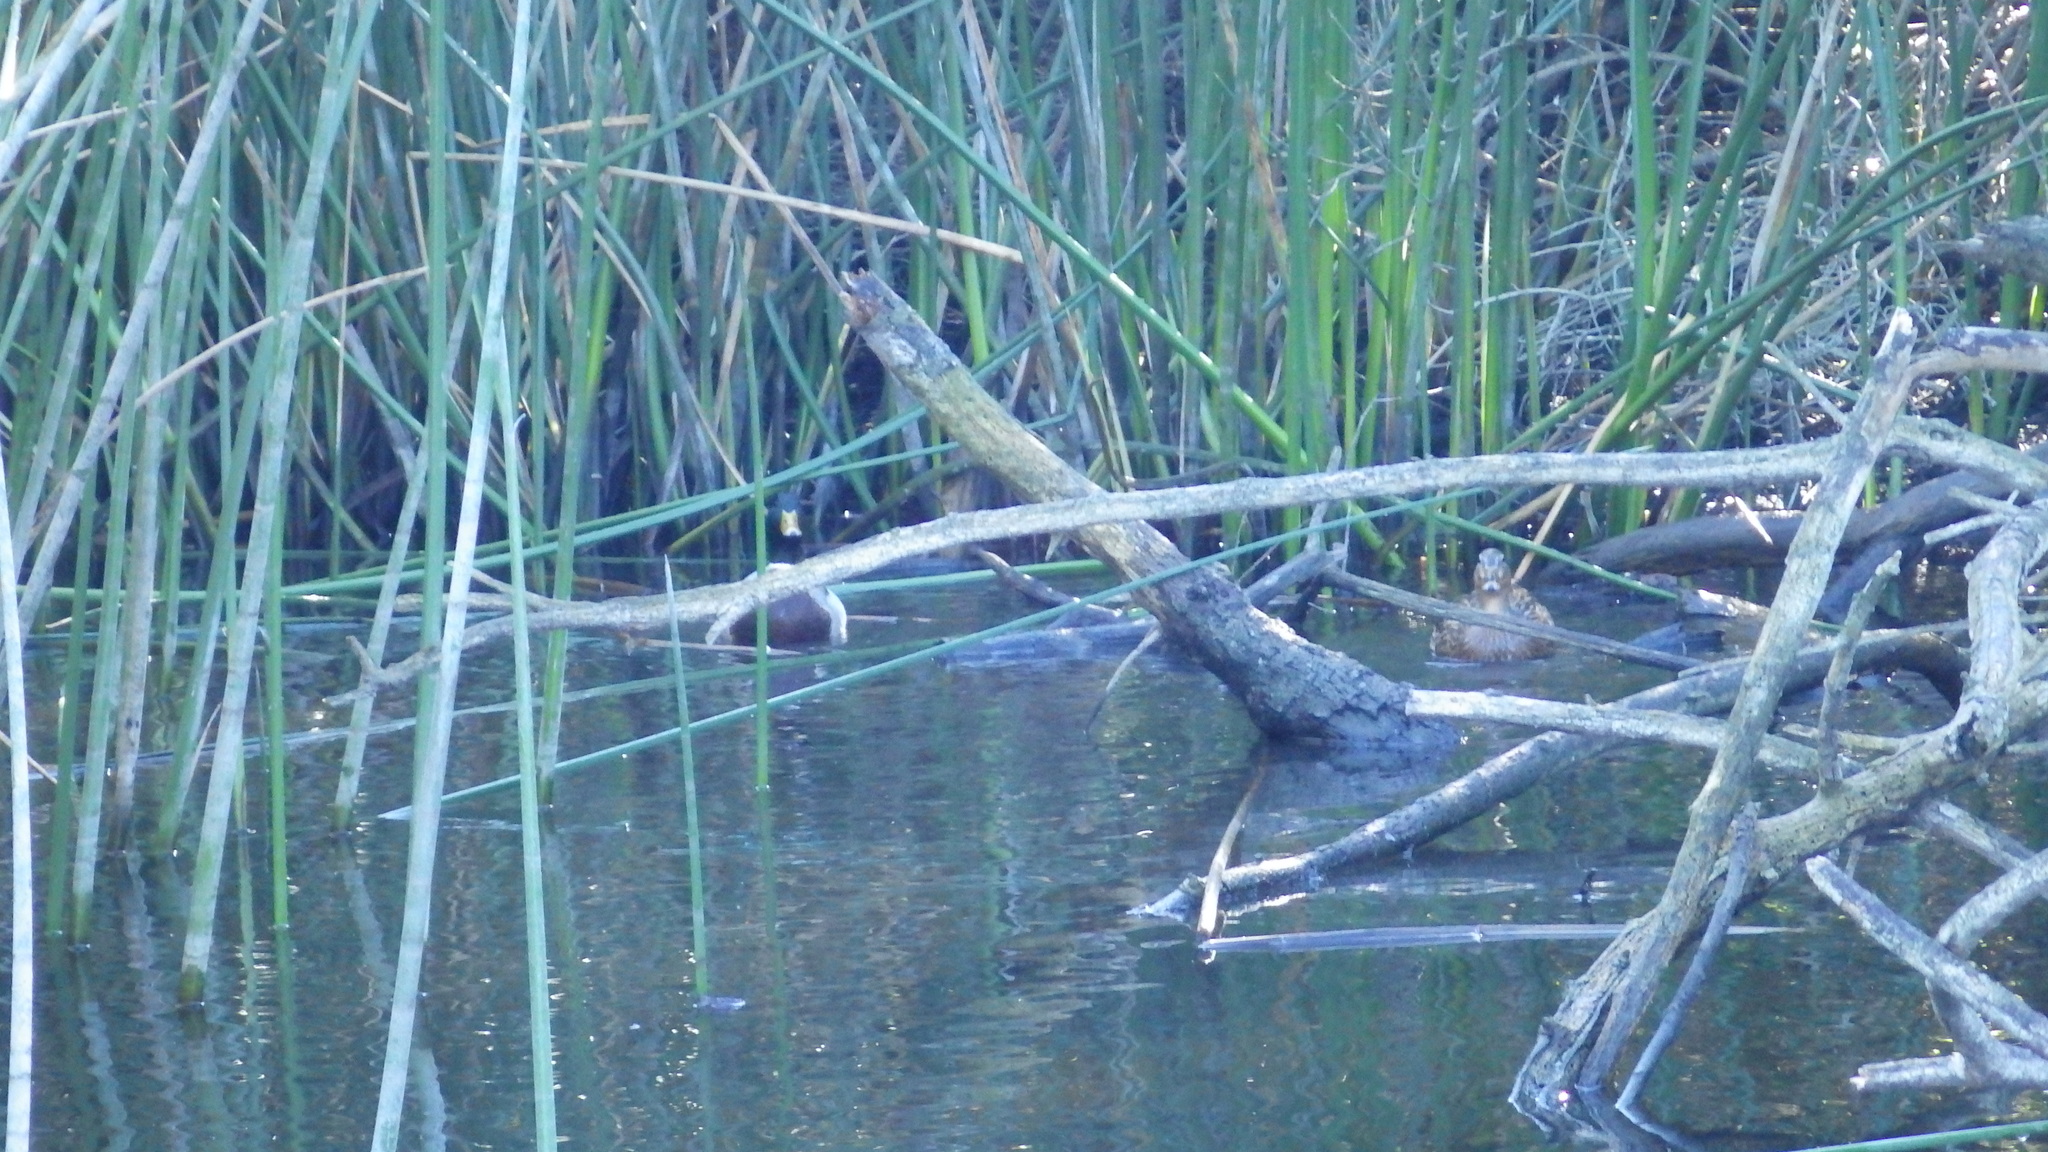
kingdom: Animalia
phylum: Chordata
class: Aves
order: Anseriformes
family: Anatidae
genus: Anas
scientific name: Anas platyrhynchos
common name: Mallard
